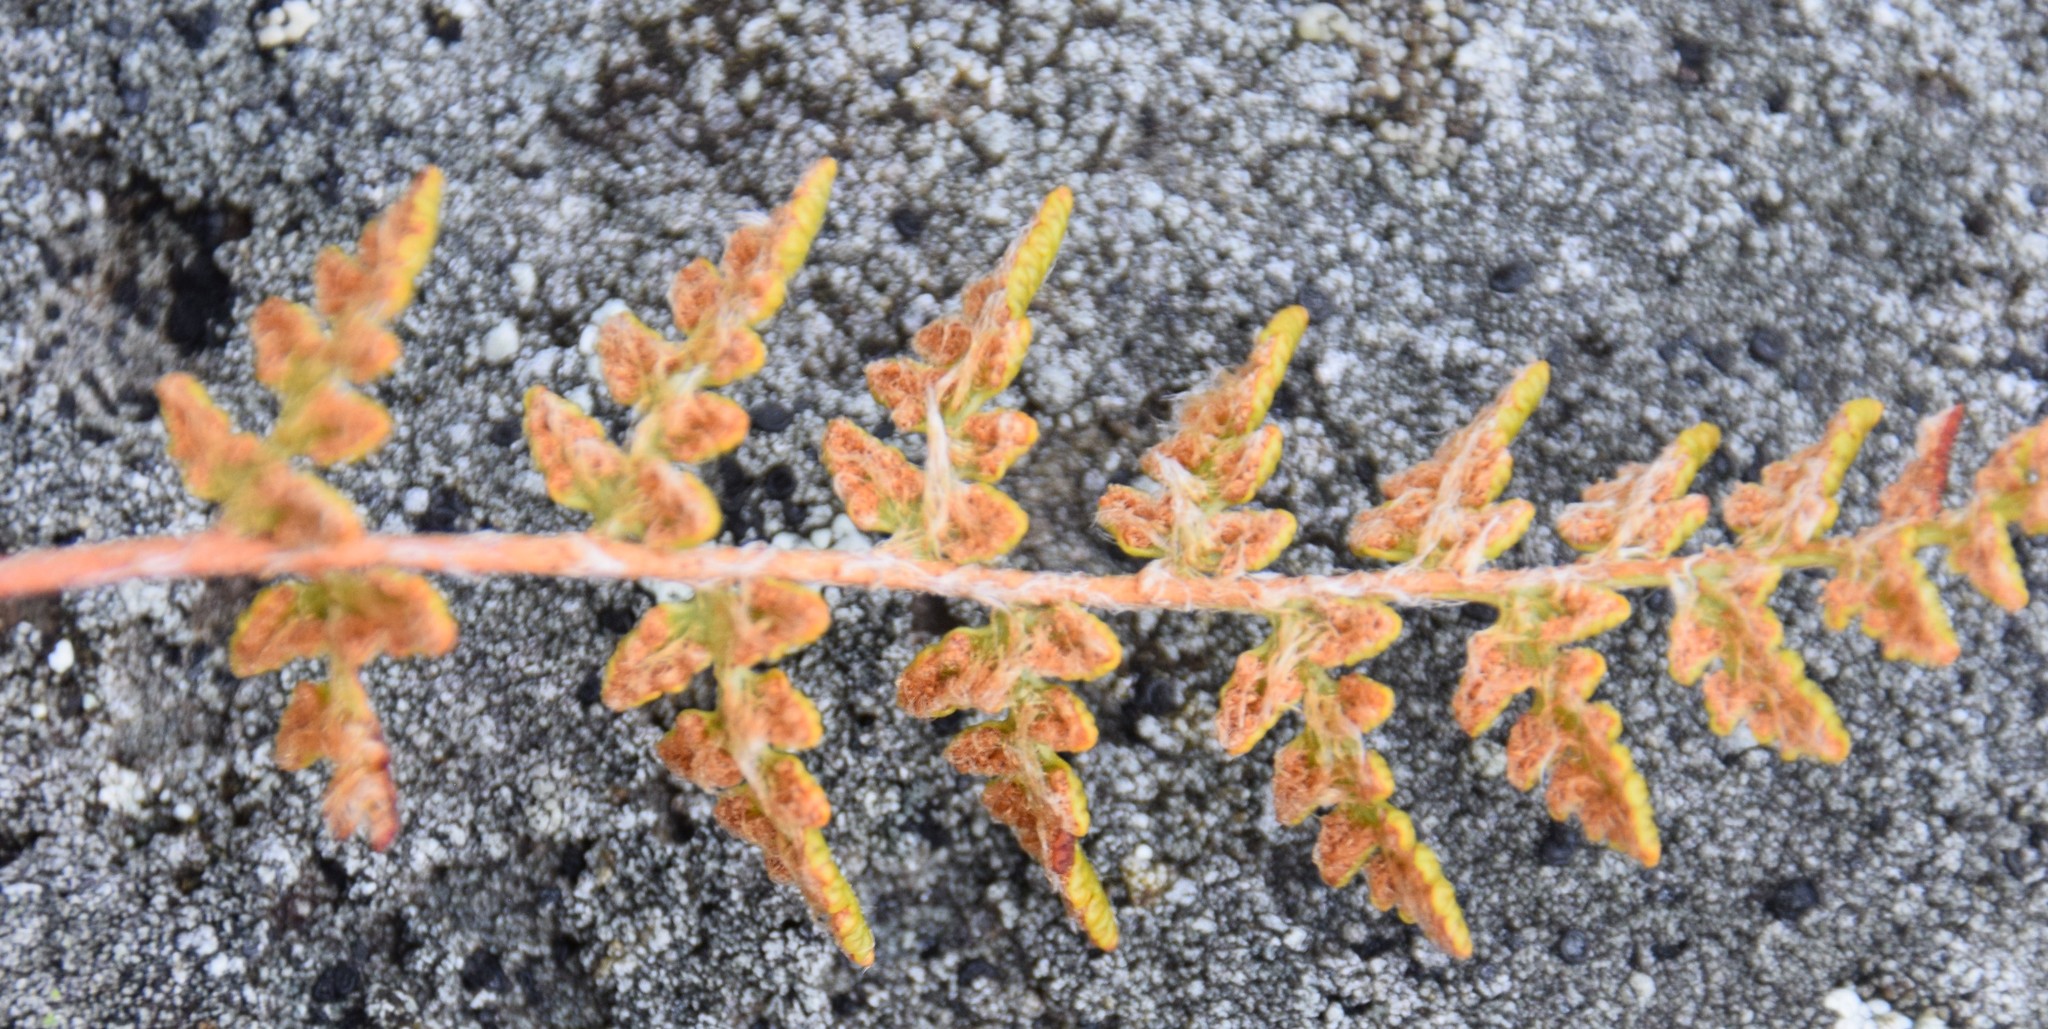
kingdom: Plantae
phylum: Tracheophyta
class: Polypodiopsida
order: Polypodiales
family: Woodsiaceae
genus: Woodsia
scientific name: Woodsia ilvensis
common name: Fragrant woodsia
